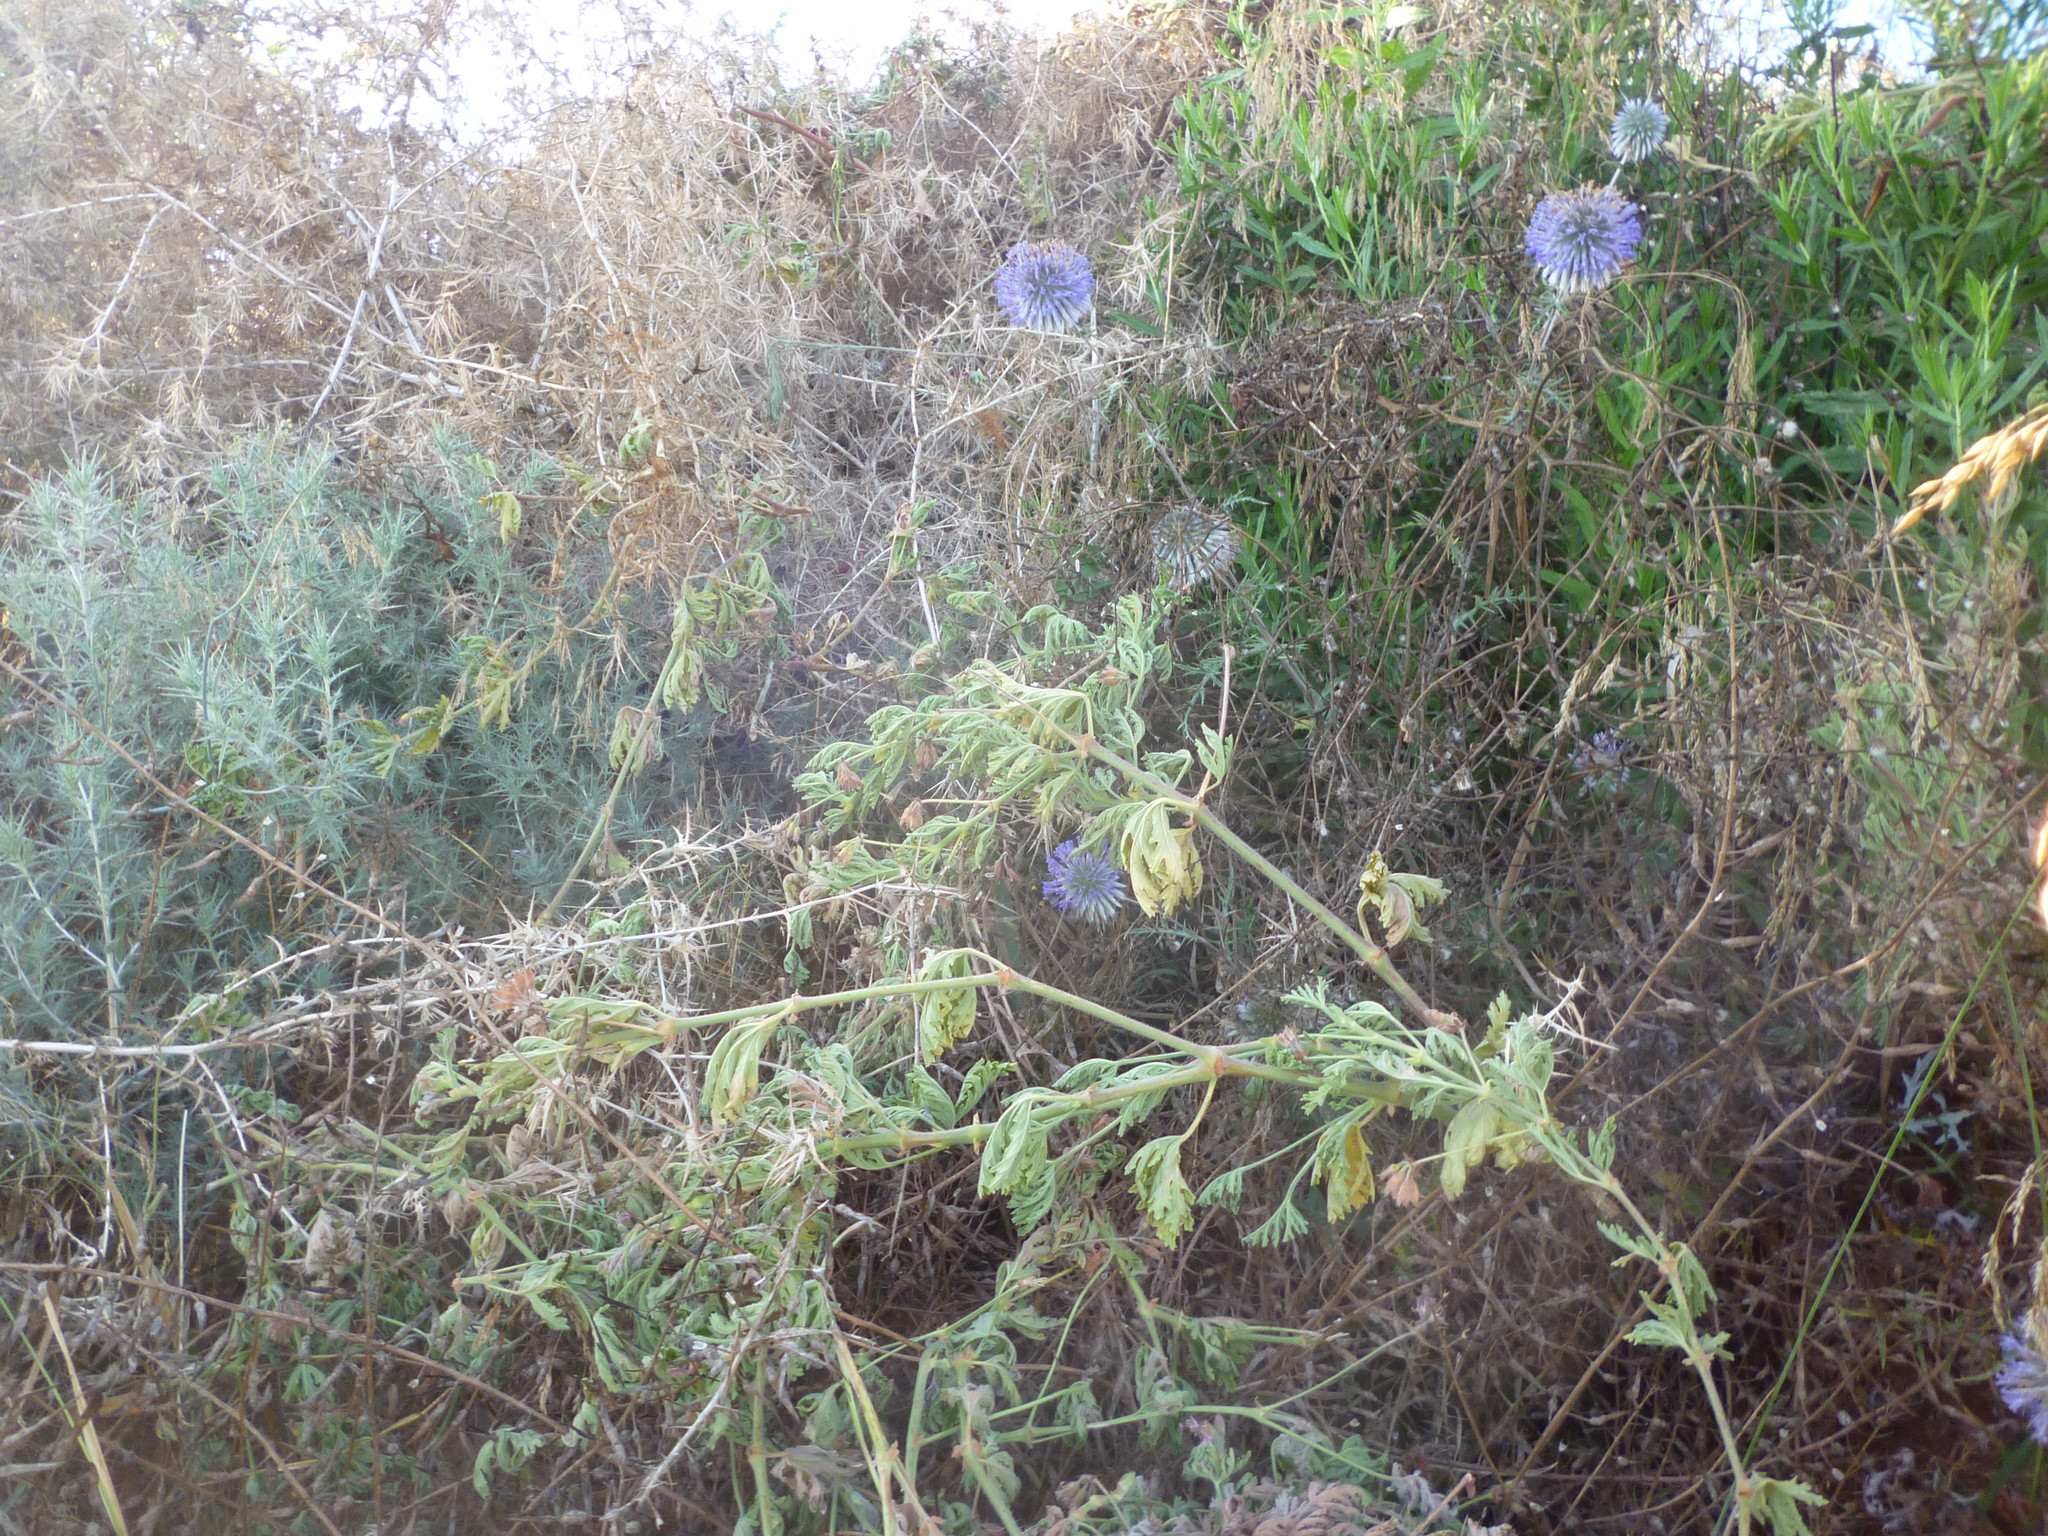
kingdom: Plantae
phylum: Tracheophyta
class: Magnoliopsida
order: Asterales
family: Asteraceae
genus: Echinops
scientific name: Echinops adenocaulos
